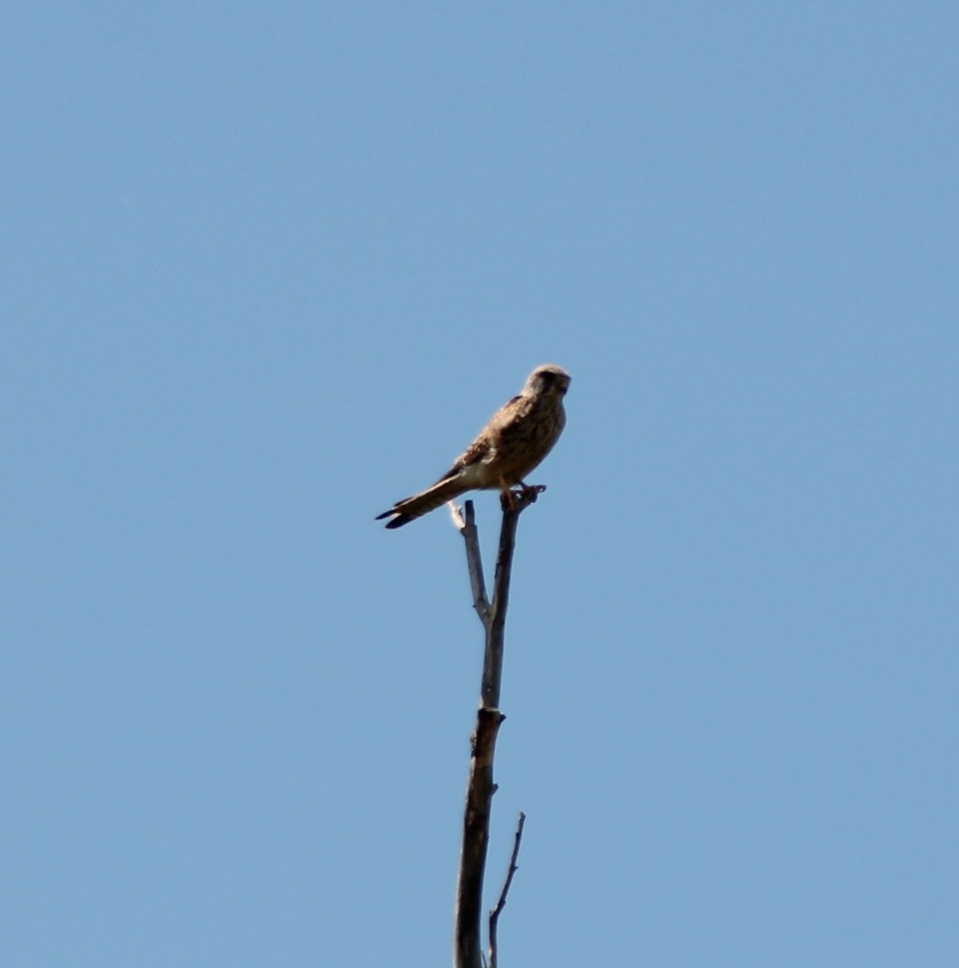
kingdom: Animalia
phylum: Chordata
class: Aves
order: Falconiformes
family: Falconidae
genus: Falco
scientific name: Falco tinnunculus
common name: Common kestrel
